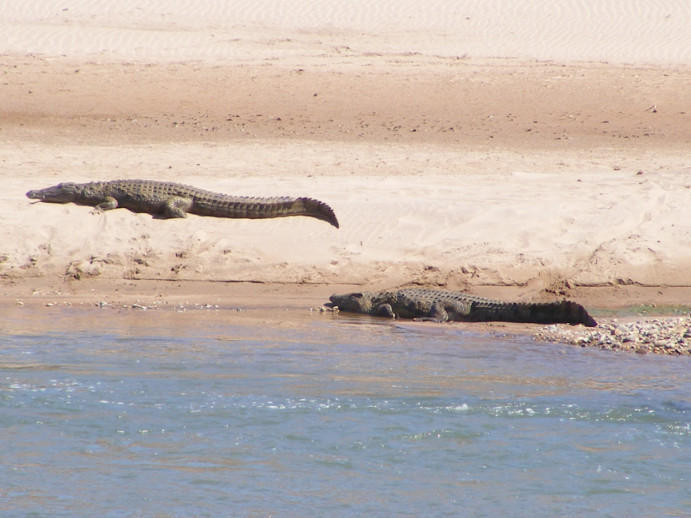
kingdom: Animalia
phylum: Chordata
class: Crocodylia
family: Crocodylidae
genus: Crocodylus
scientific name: Crocodylus niloticus
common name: Nile crocodile
